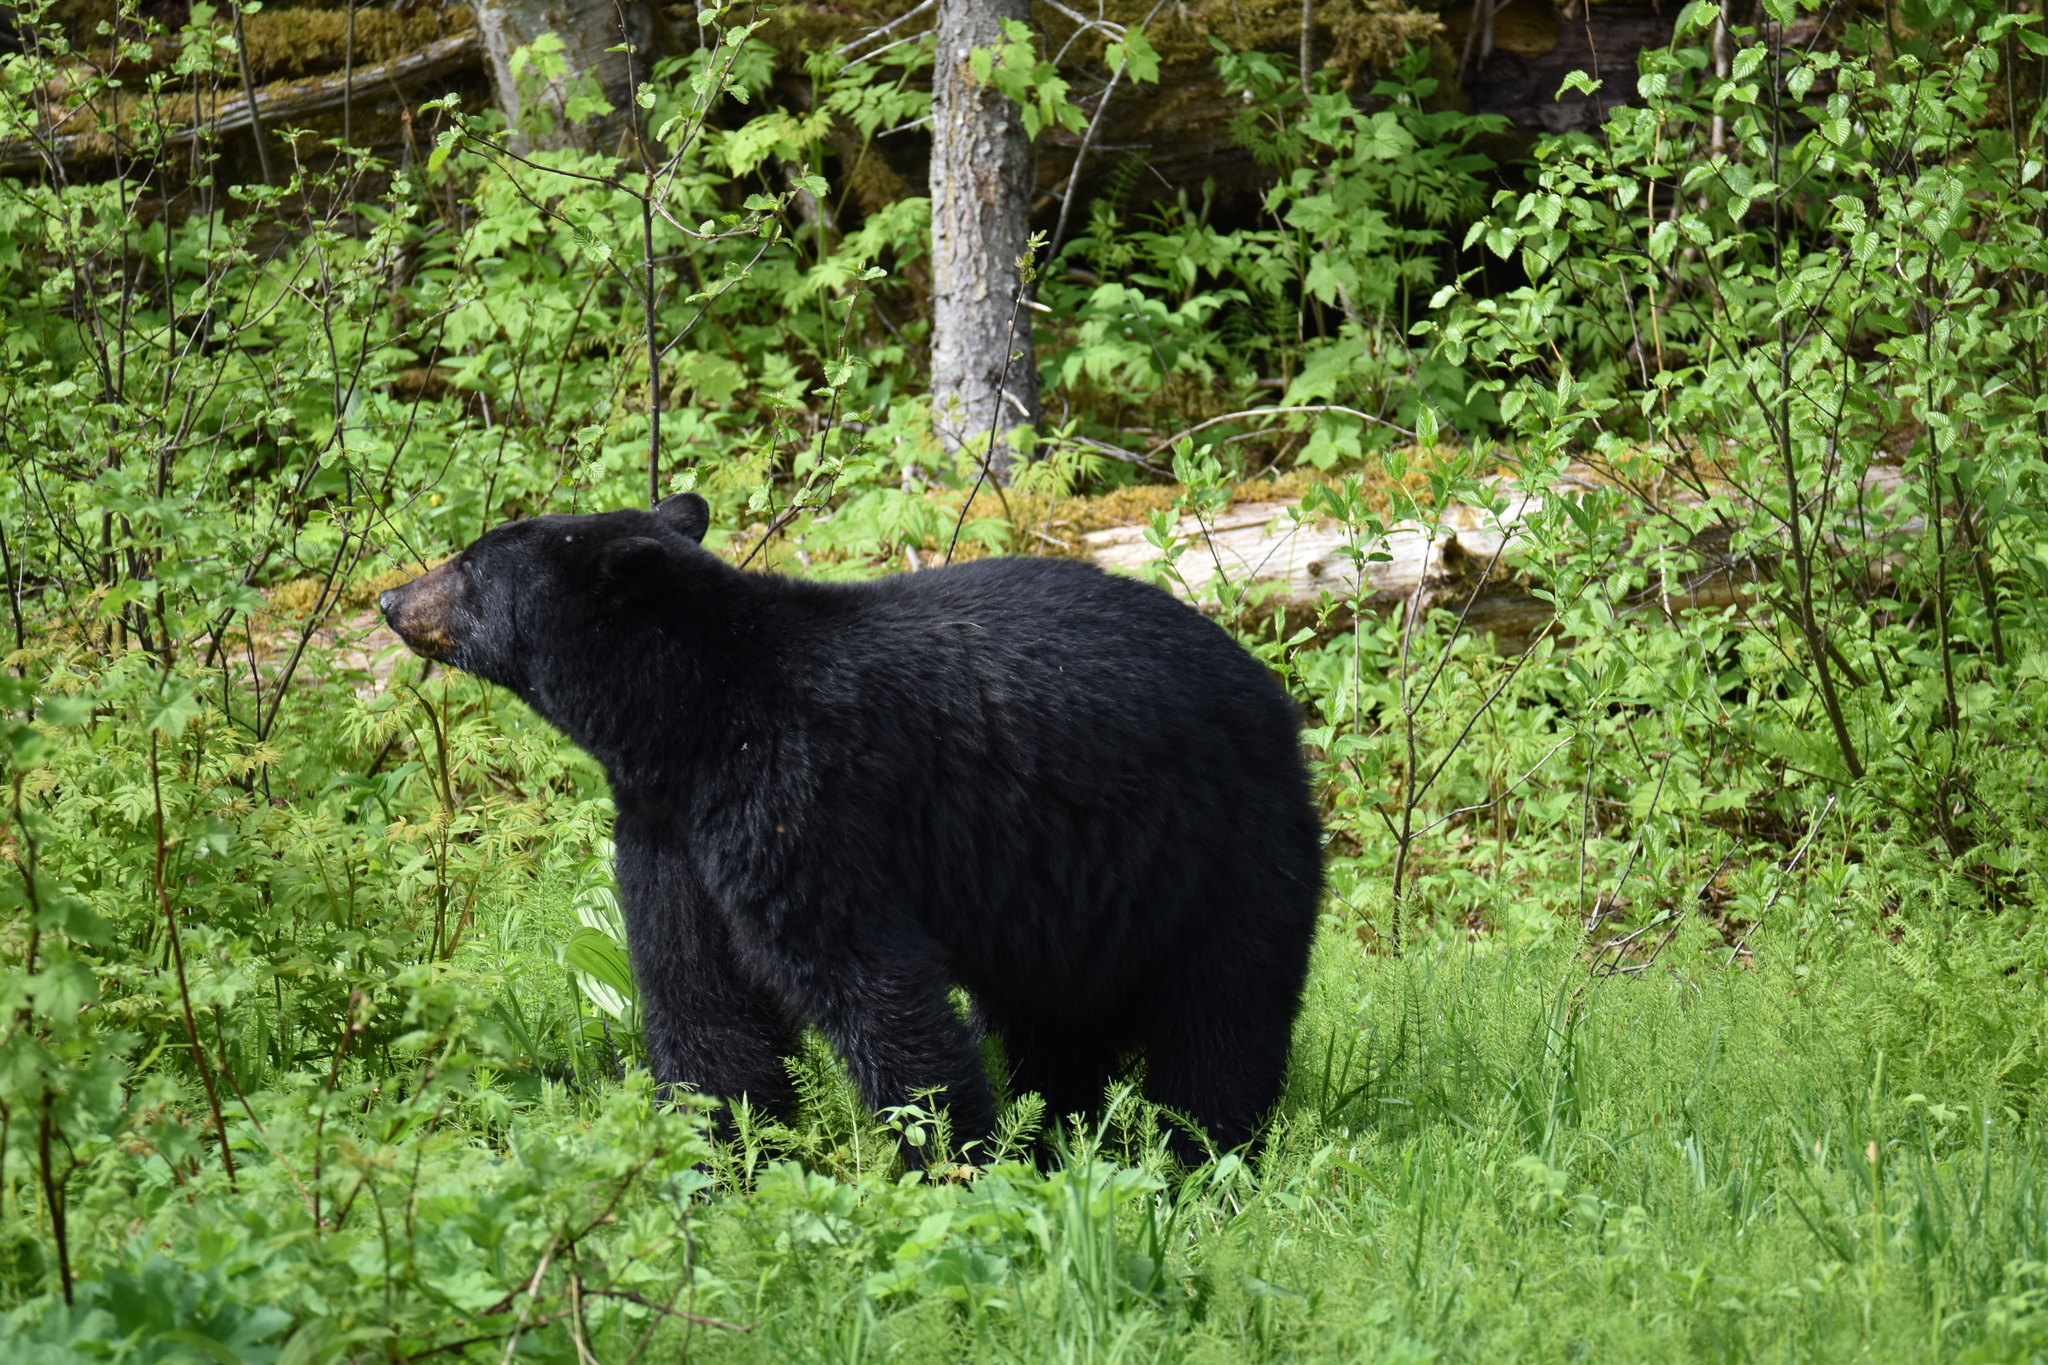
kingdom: Animalia
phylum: Chordata
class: Mammalia
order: Carnivora
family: Ursidae
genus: Ursus
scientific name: Ursus americanus
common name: American black bear
